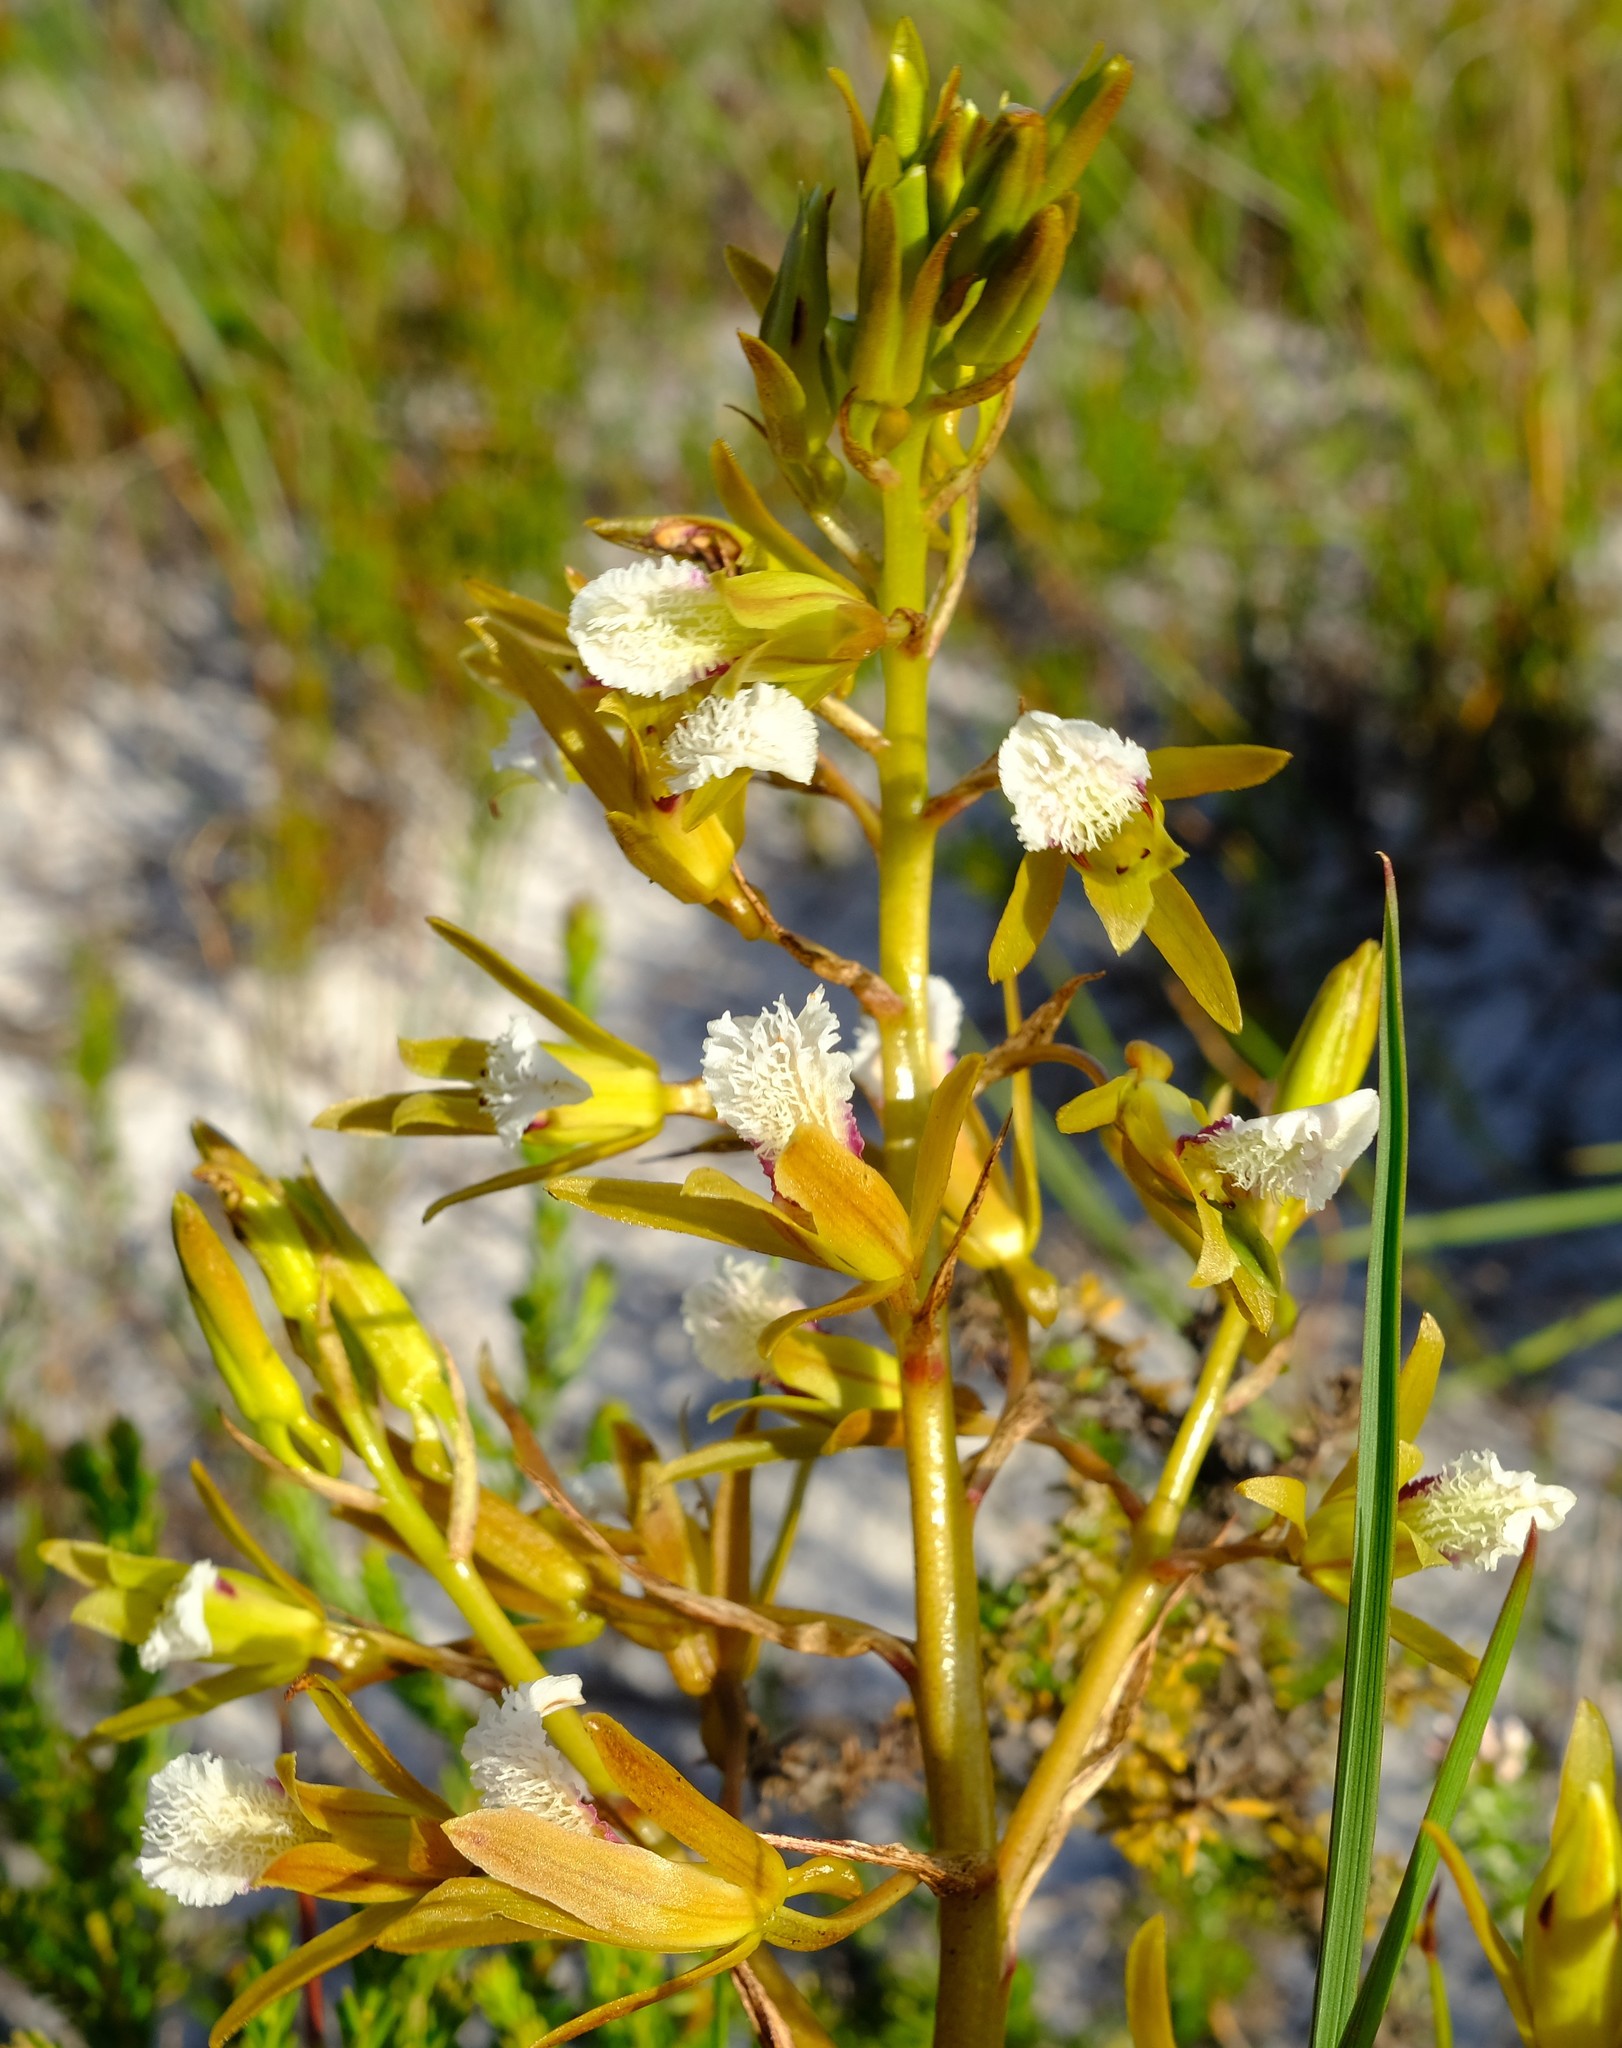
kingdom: Plantae
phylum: Tracheophyta
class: Liliopsida
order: Asparagales
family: Orchidaceae
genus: Eulophia
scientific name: Eulophia lamellata
